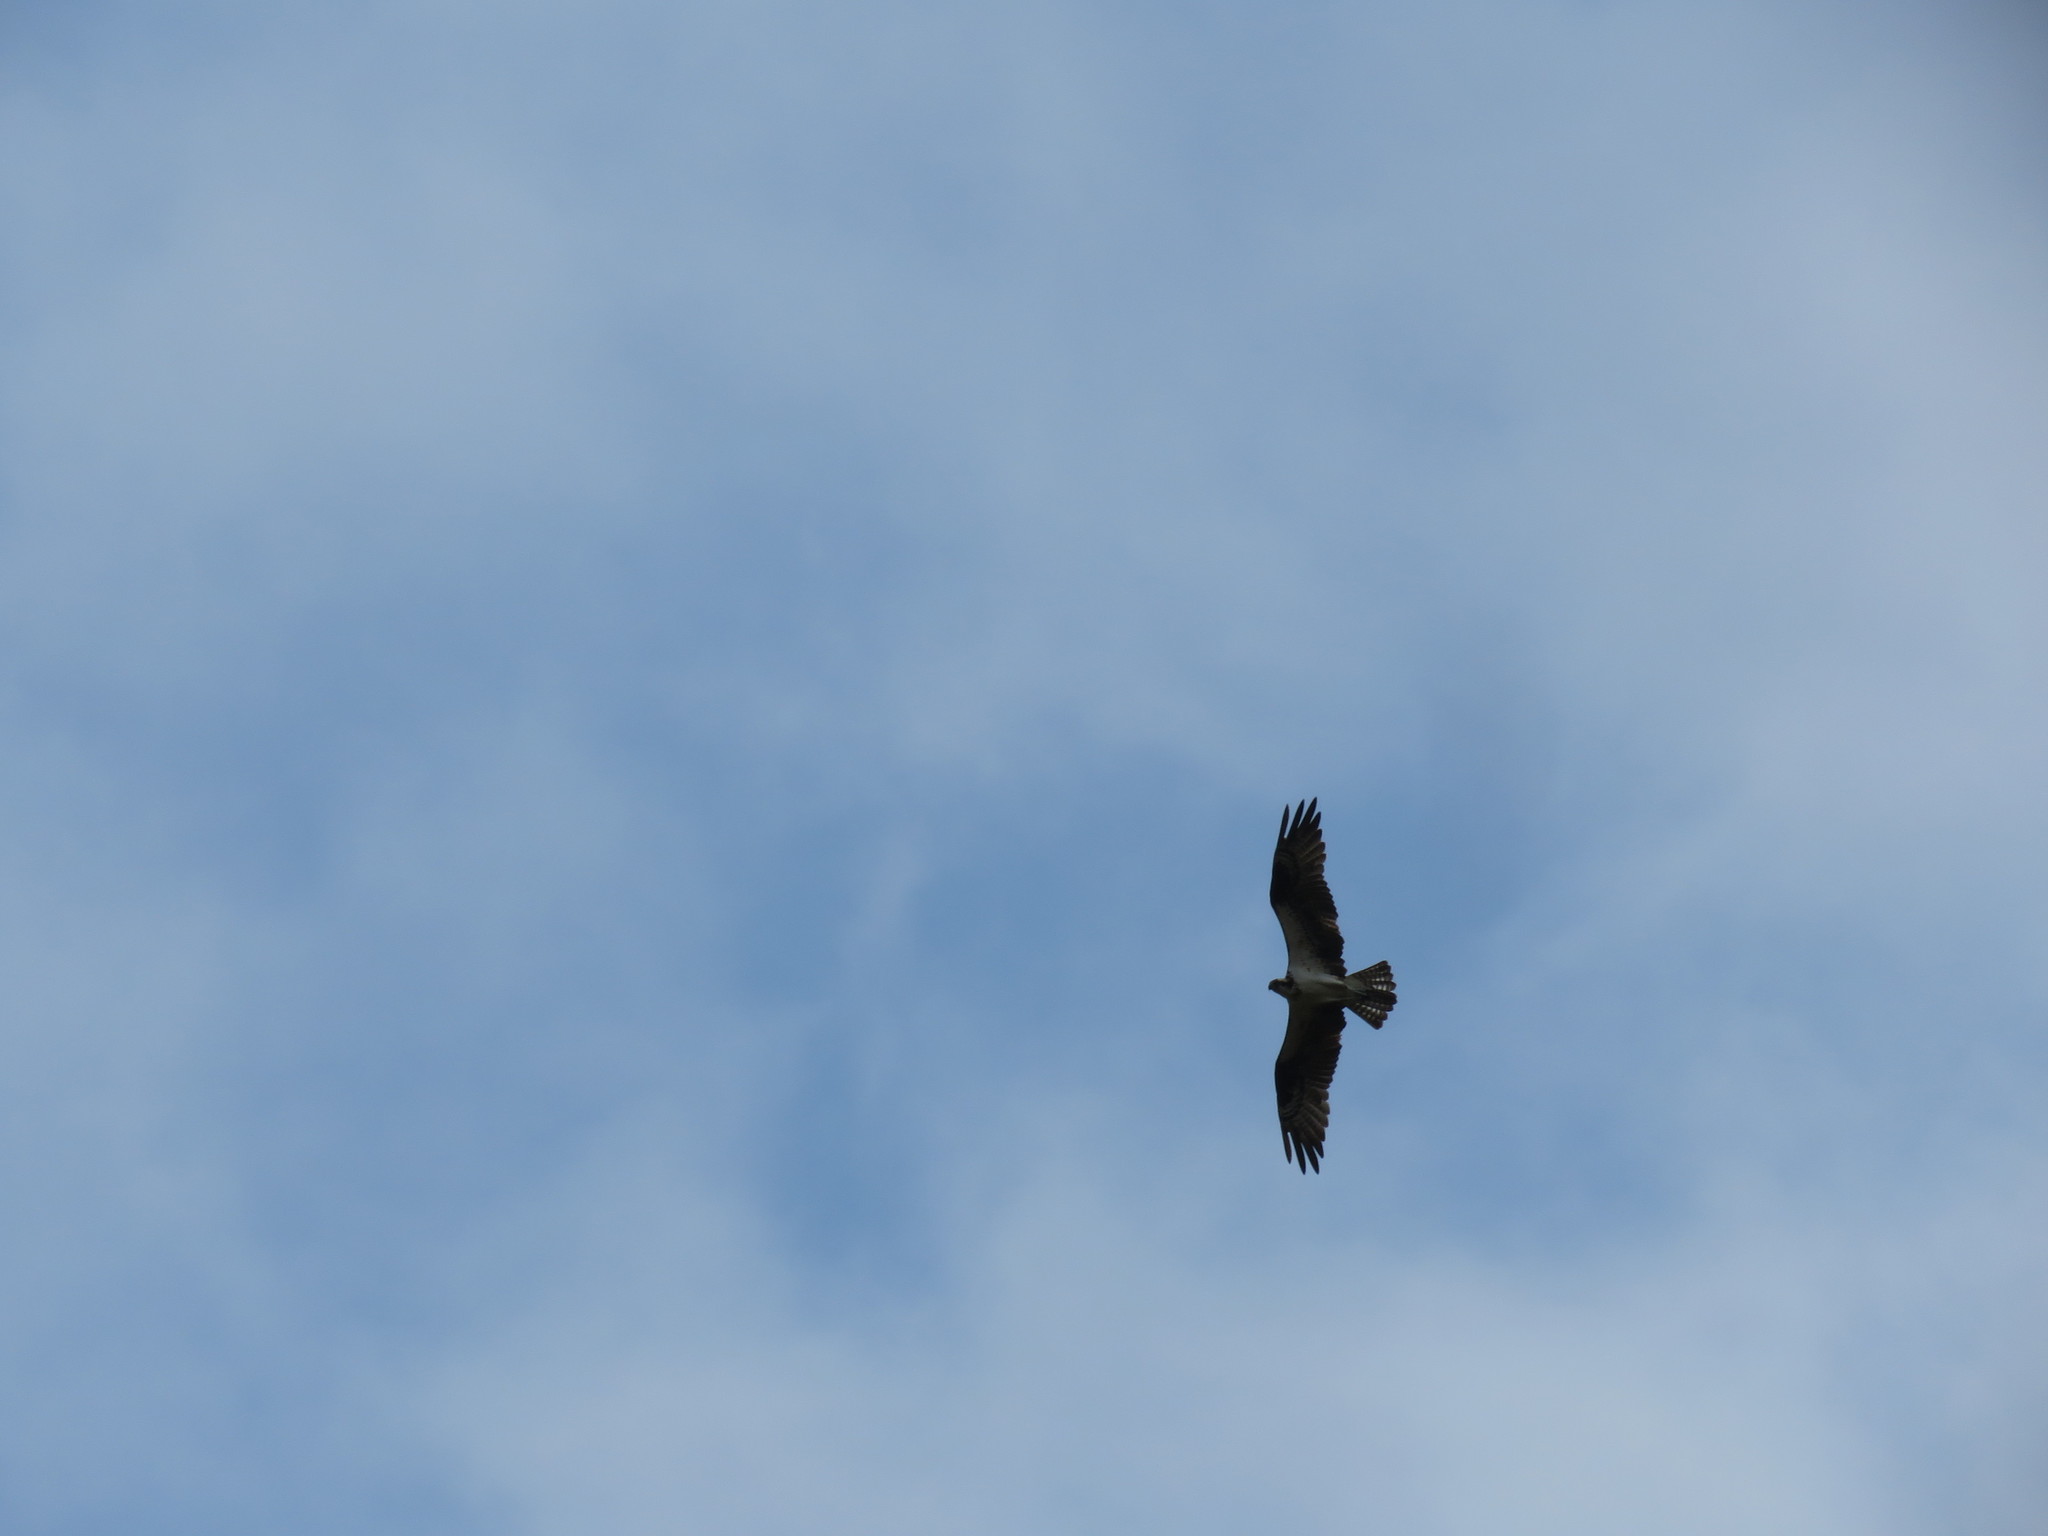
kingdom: Animalia
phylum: Chordata
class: Aves
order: Accipitriformes
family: Pandionidae
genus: Pandion
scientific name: Pandion haliaetus
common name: Osprey
